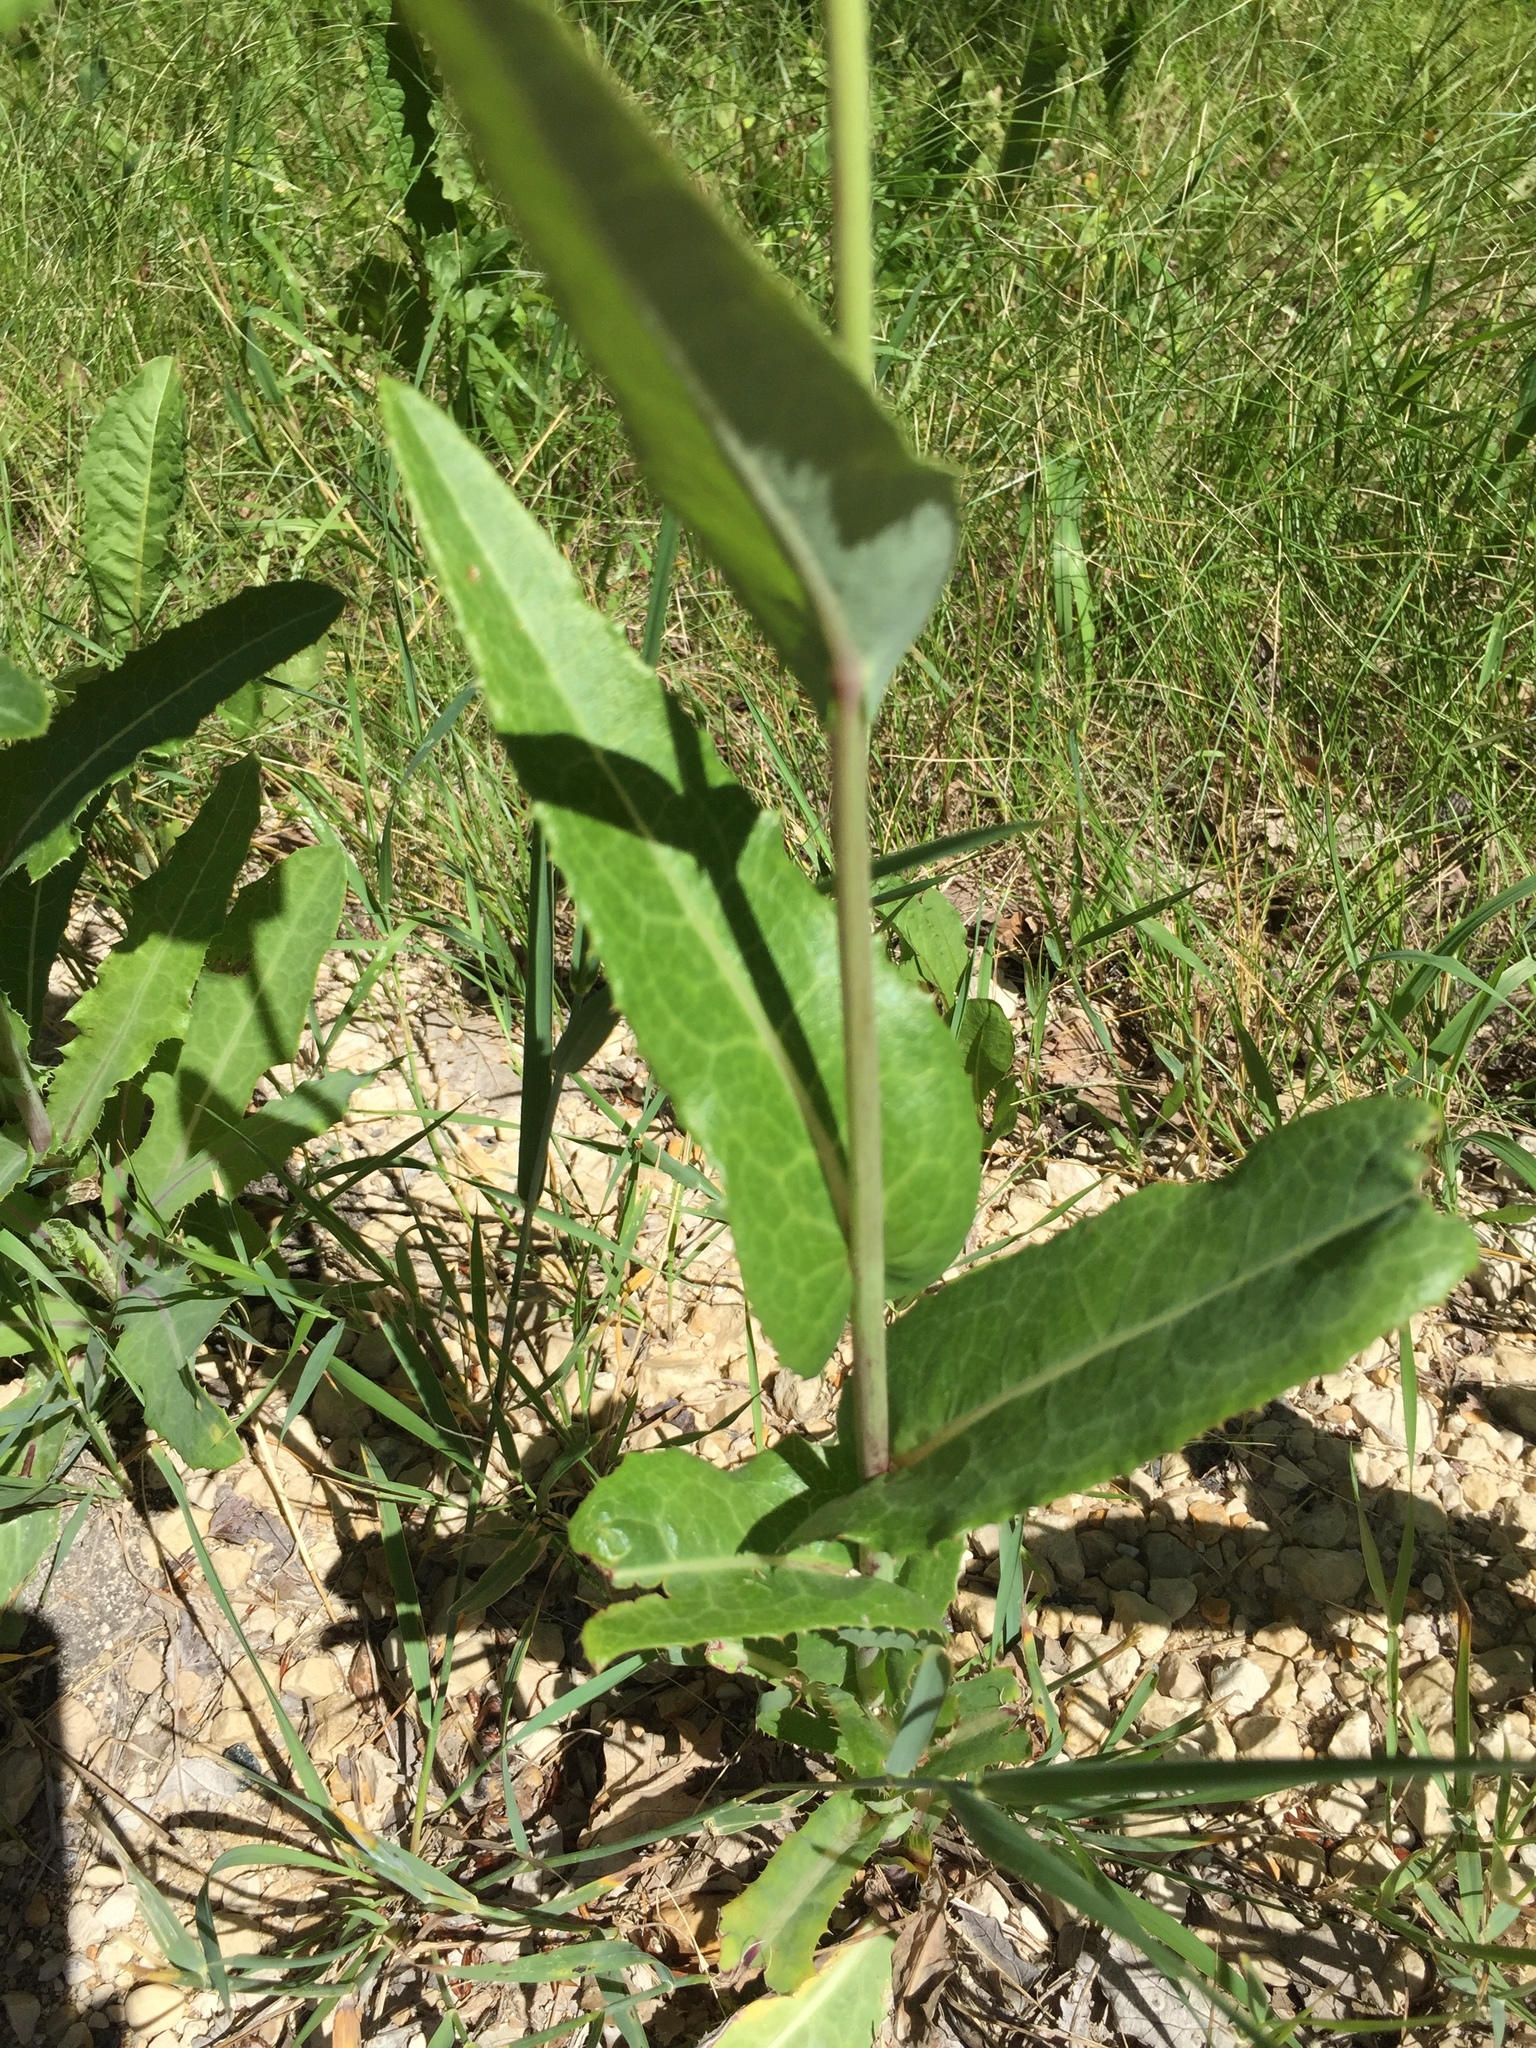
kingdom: Plantae
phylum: Tracheophyta
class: Magnoliopsida
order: Asterales
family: Asteraceae
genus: Hieracium
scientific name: Hieracium umbellatum
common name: Northern hawkweed
